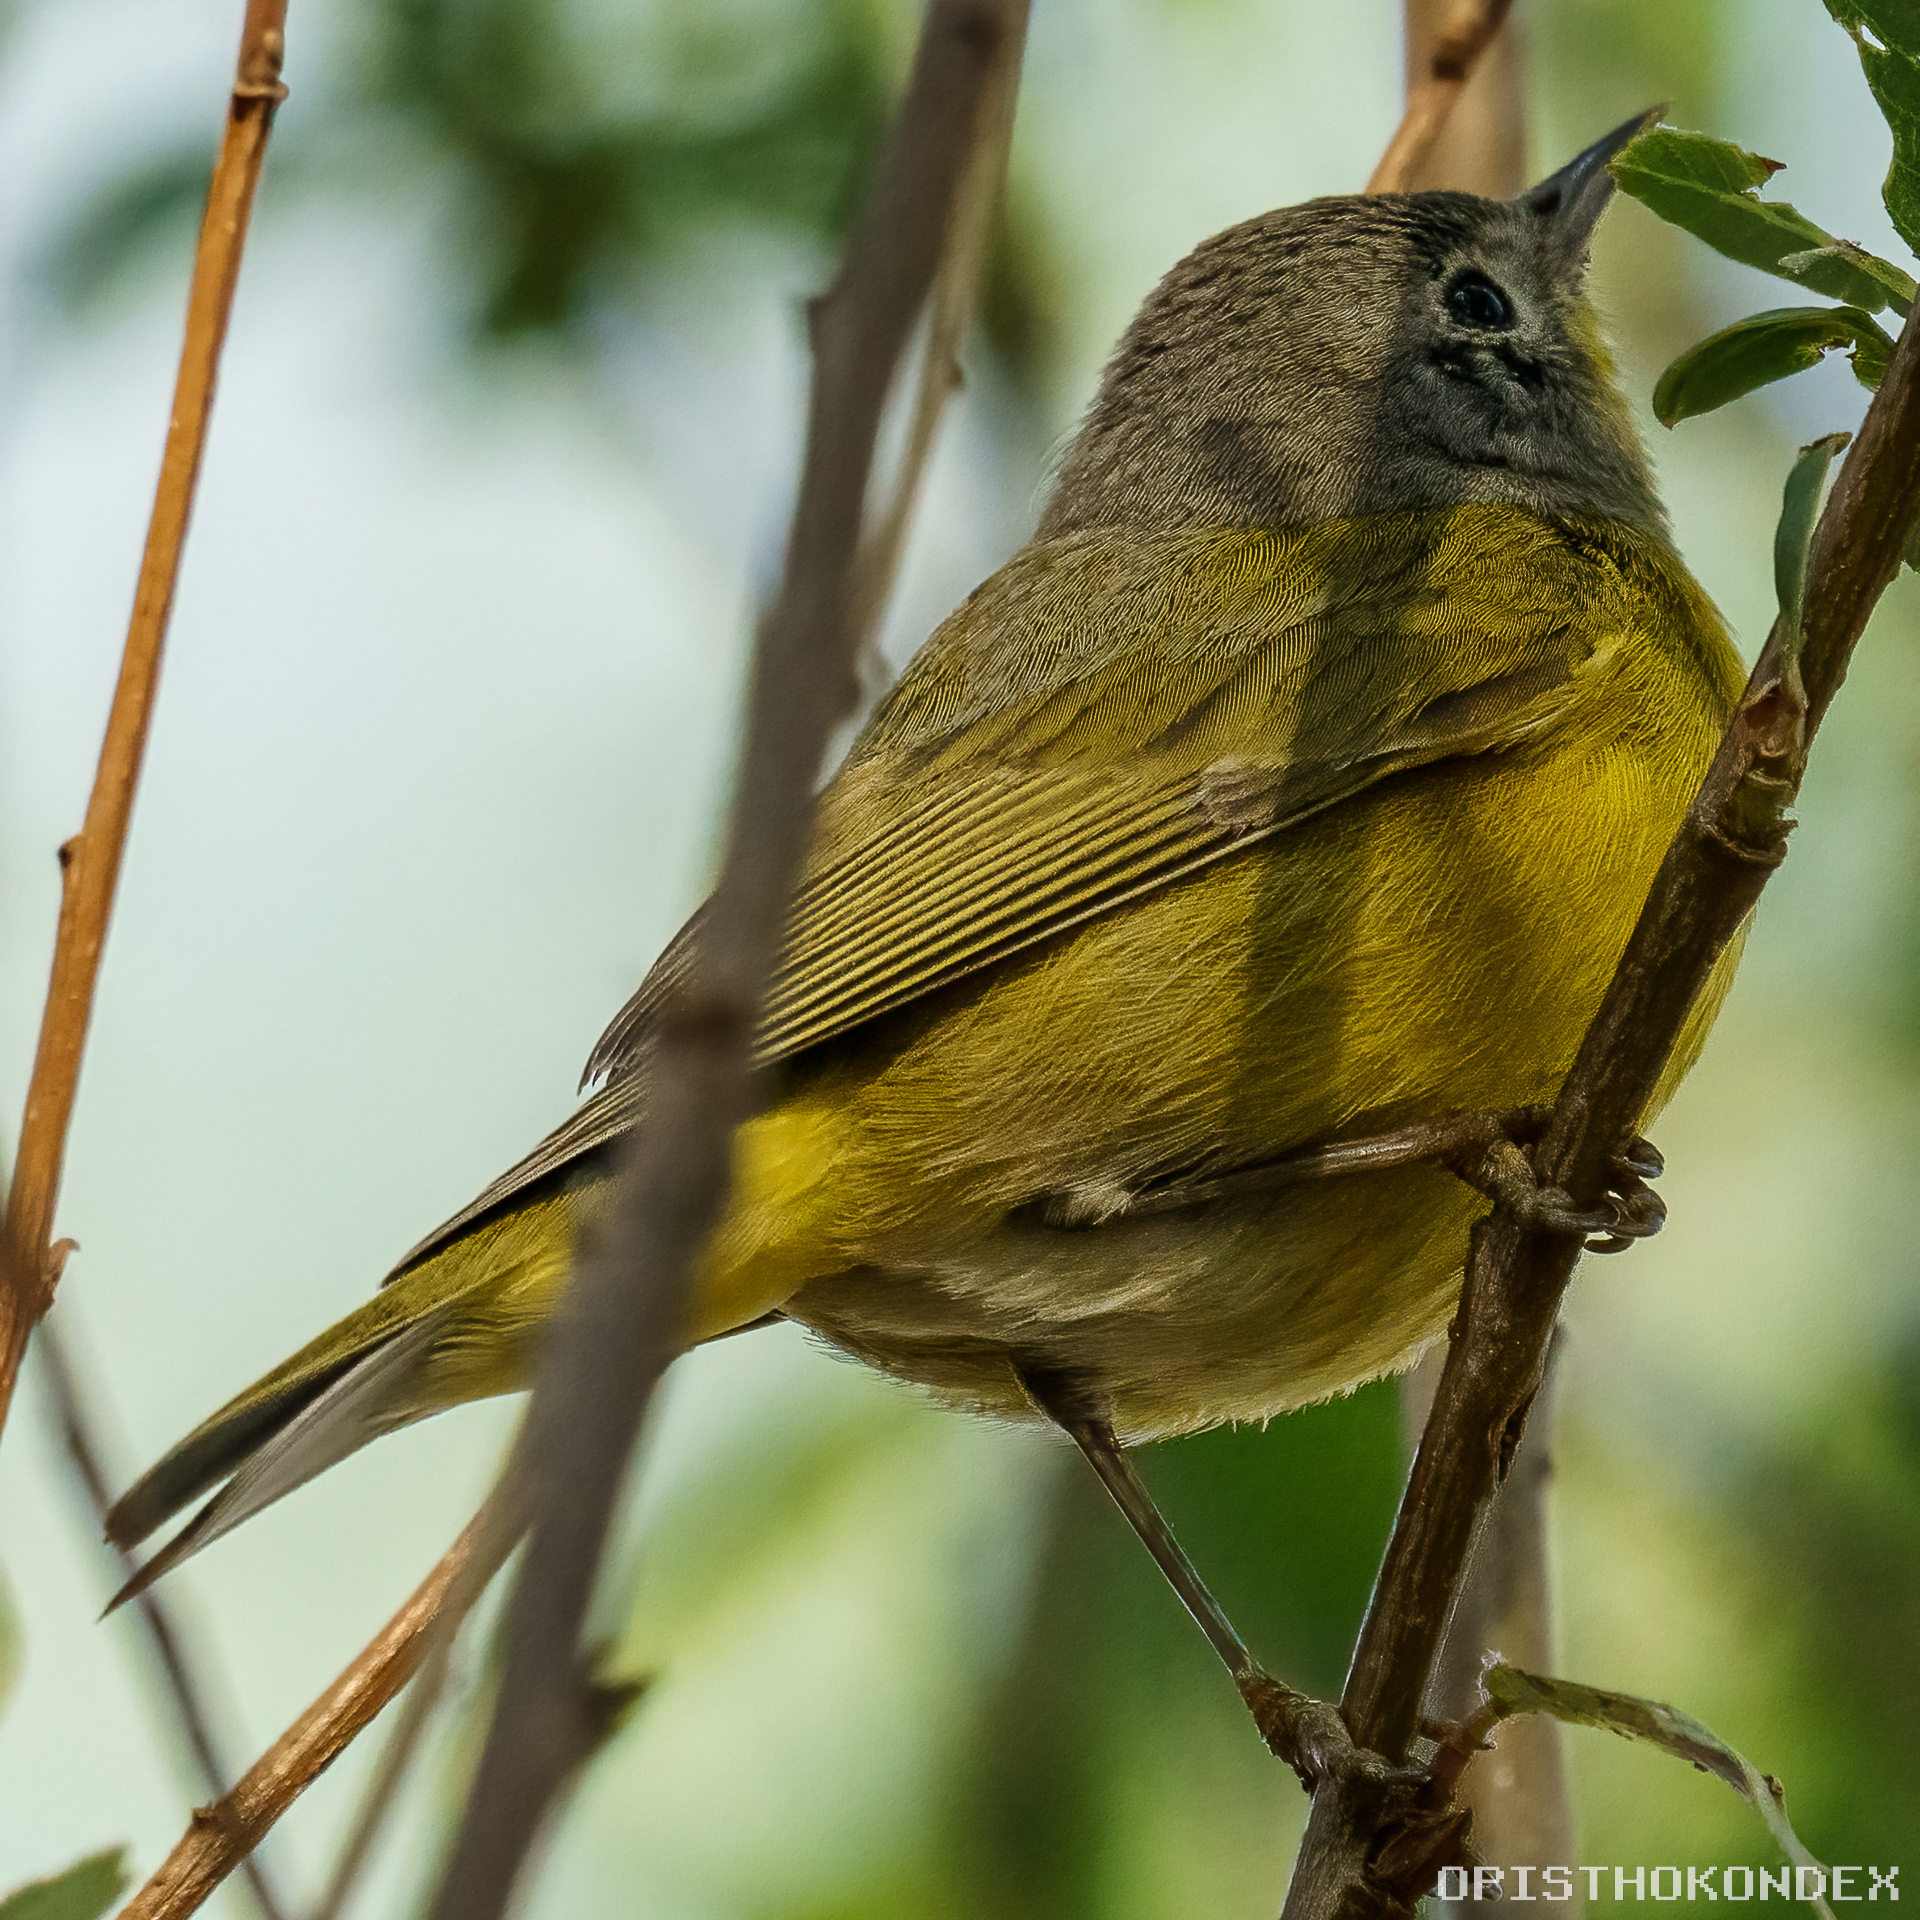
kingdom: Animalia
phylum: Chordata
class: Aves
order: Passeriformes
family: Parulidae
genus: Leiothlypis
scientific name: Leiothlypis ruficapilla
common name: Nashville warbler
